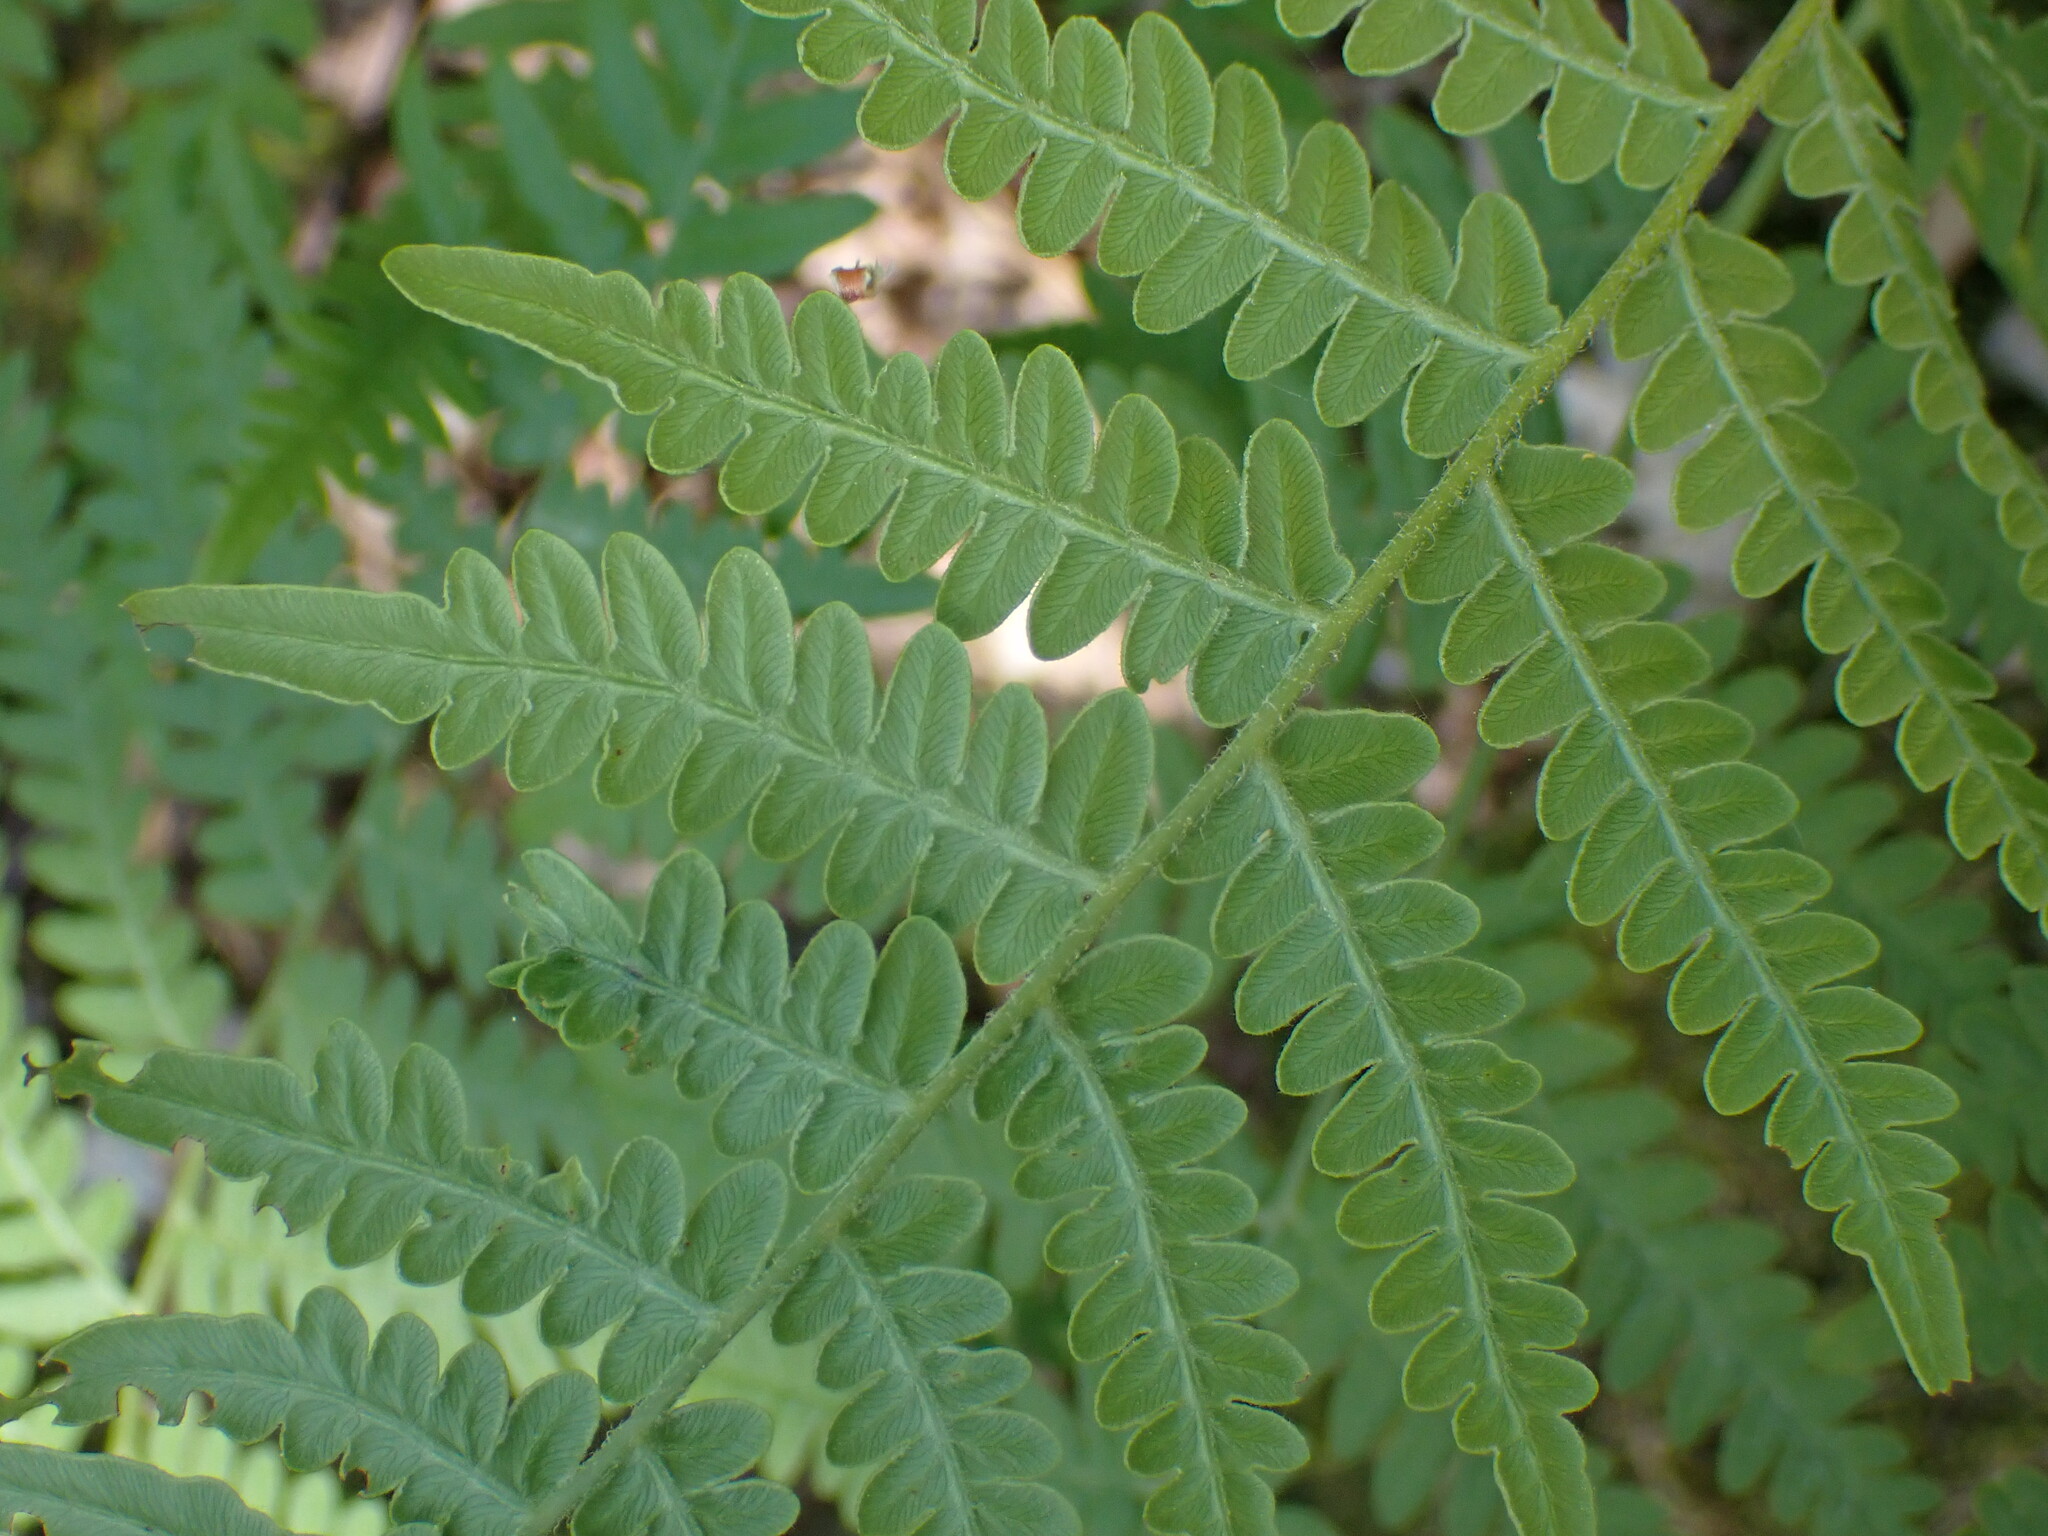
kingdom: Plantae
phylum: Tracheophyta
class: Polypodiopsida
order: Polypodiales
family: Dennstaedtiaceae
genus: Pteridium
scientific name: Pteridium aquilinum
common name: Bracken
